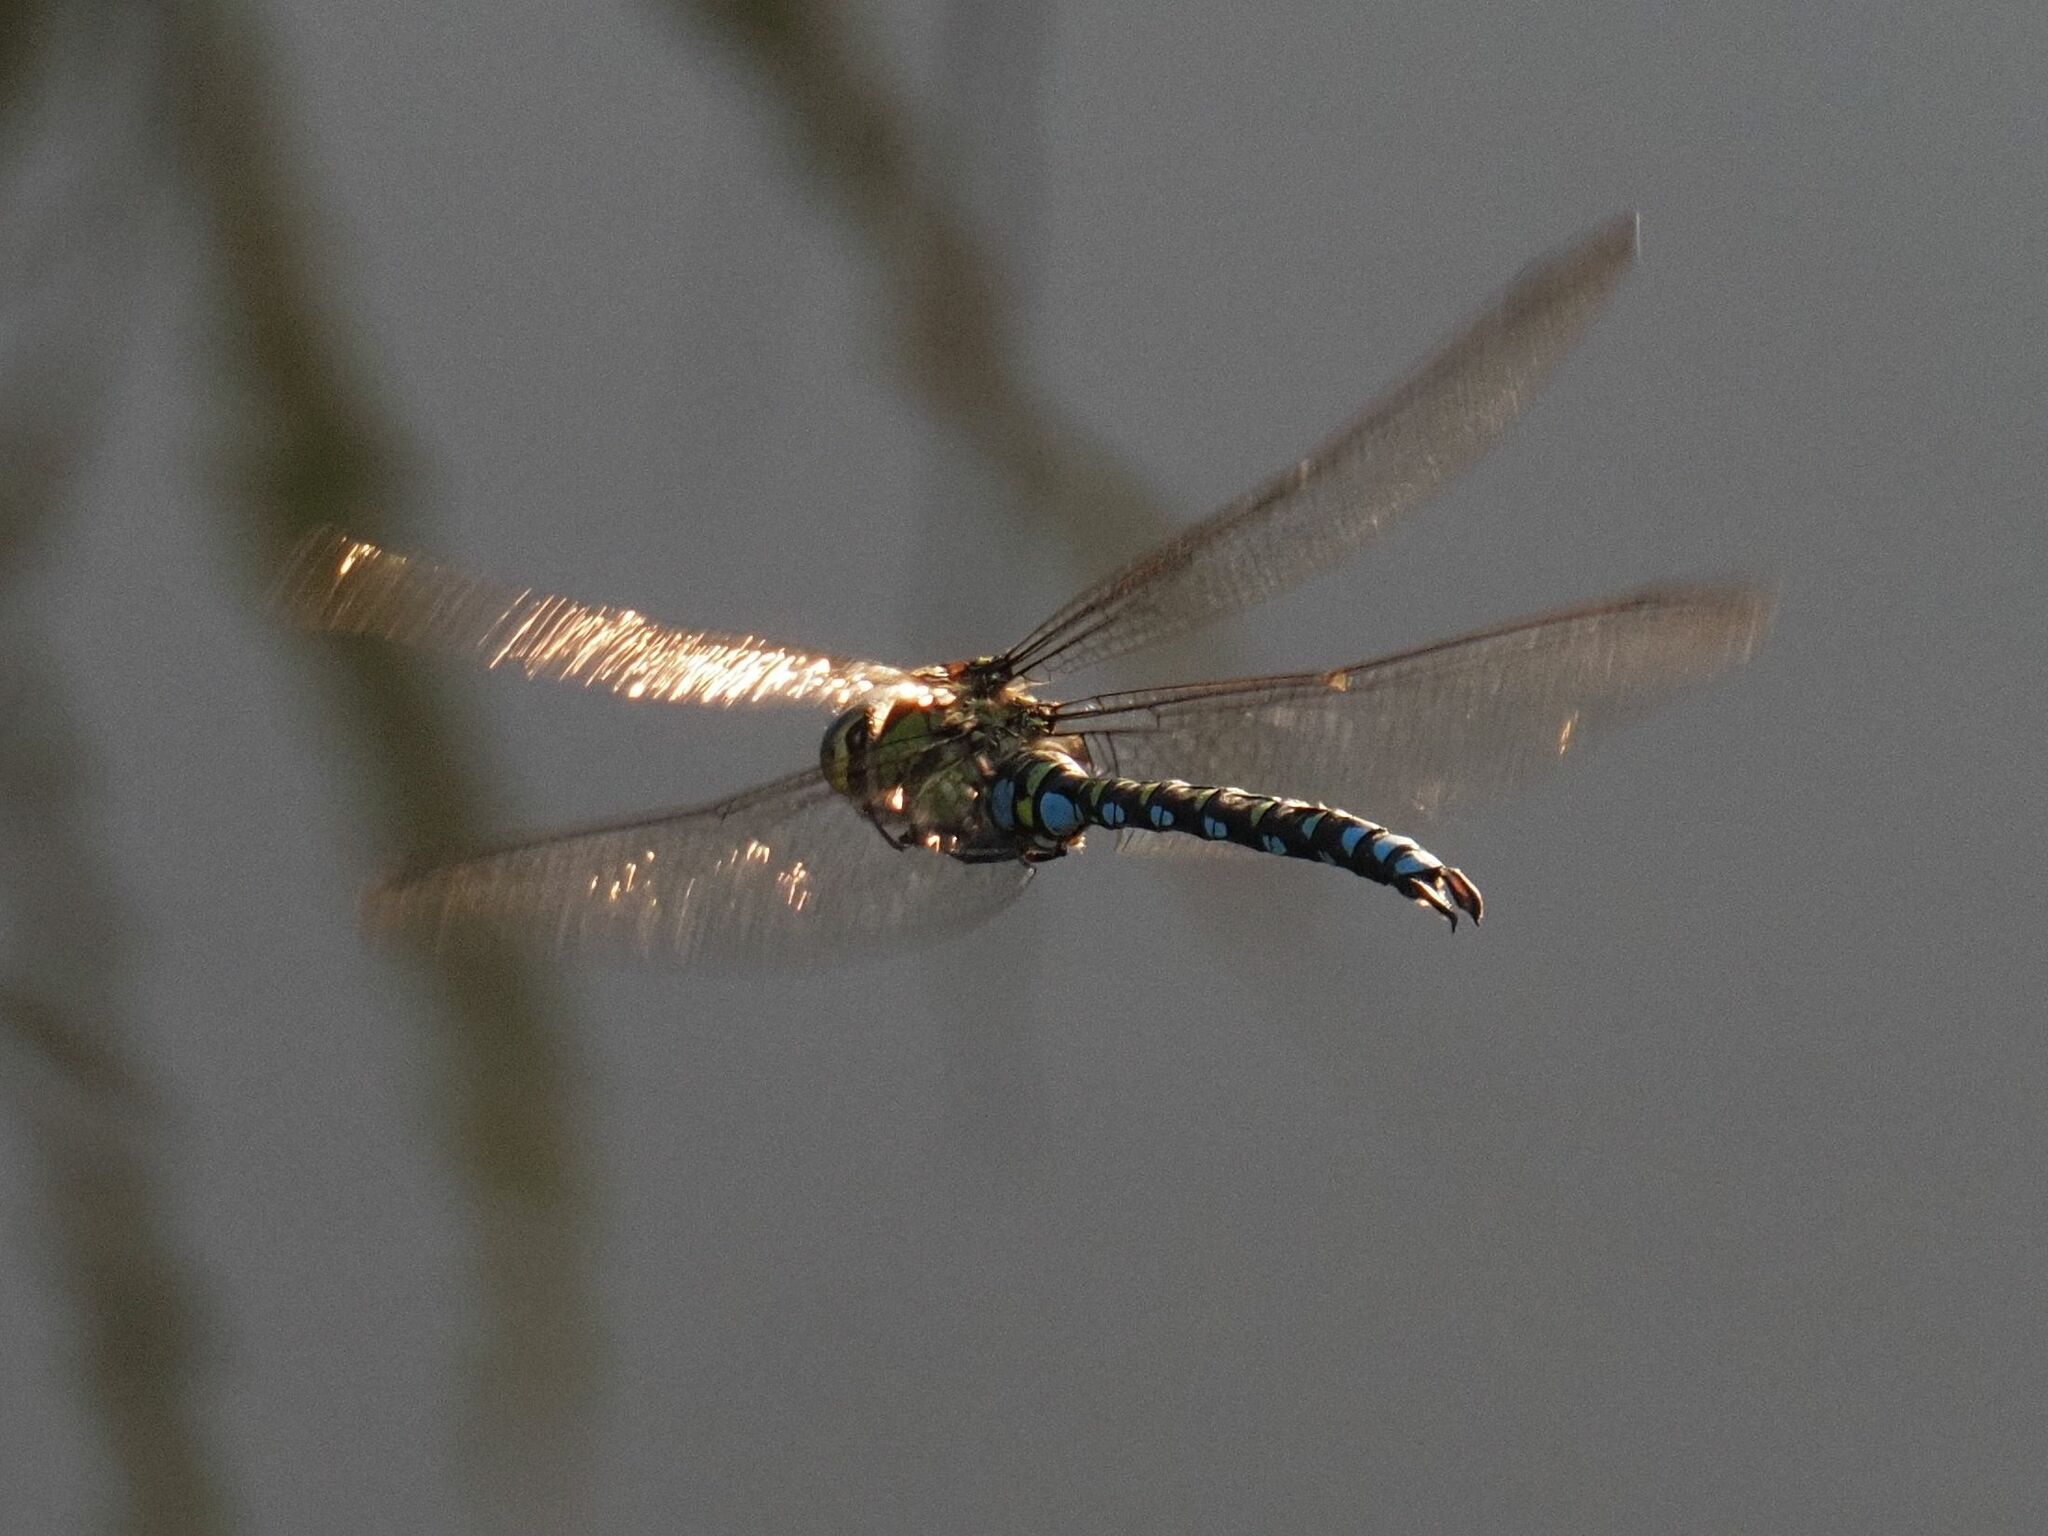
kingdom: Animalia
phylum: Arthropoda
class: Insecta
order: Odonata
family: Aeshnidae
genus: Aeshna
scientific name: Aeshna cyanea
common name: Southern hawker
